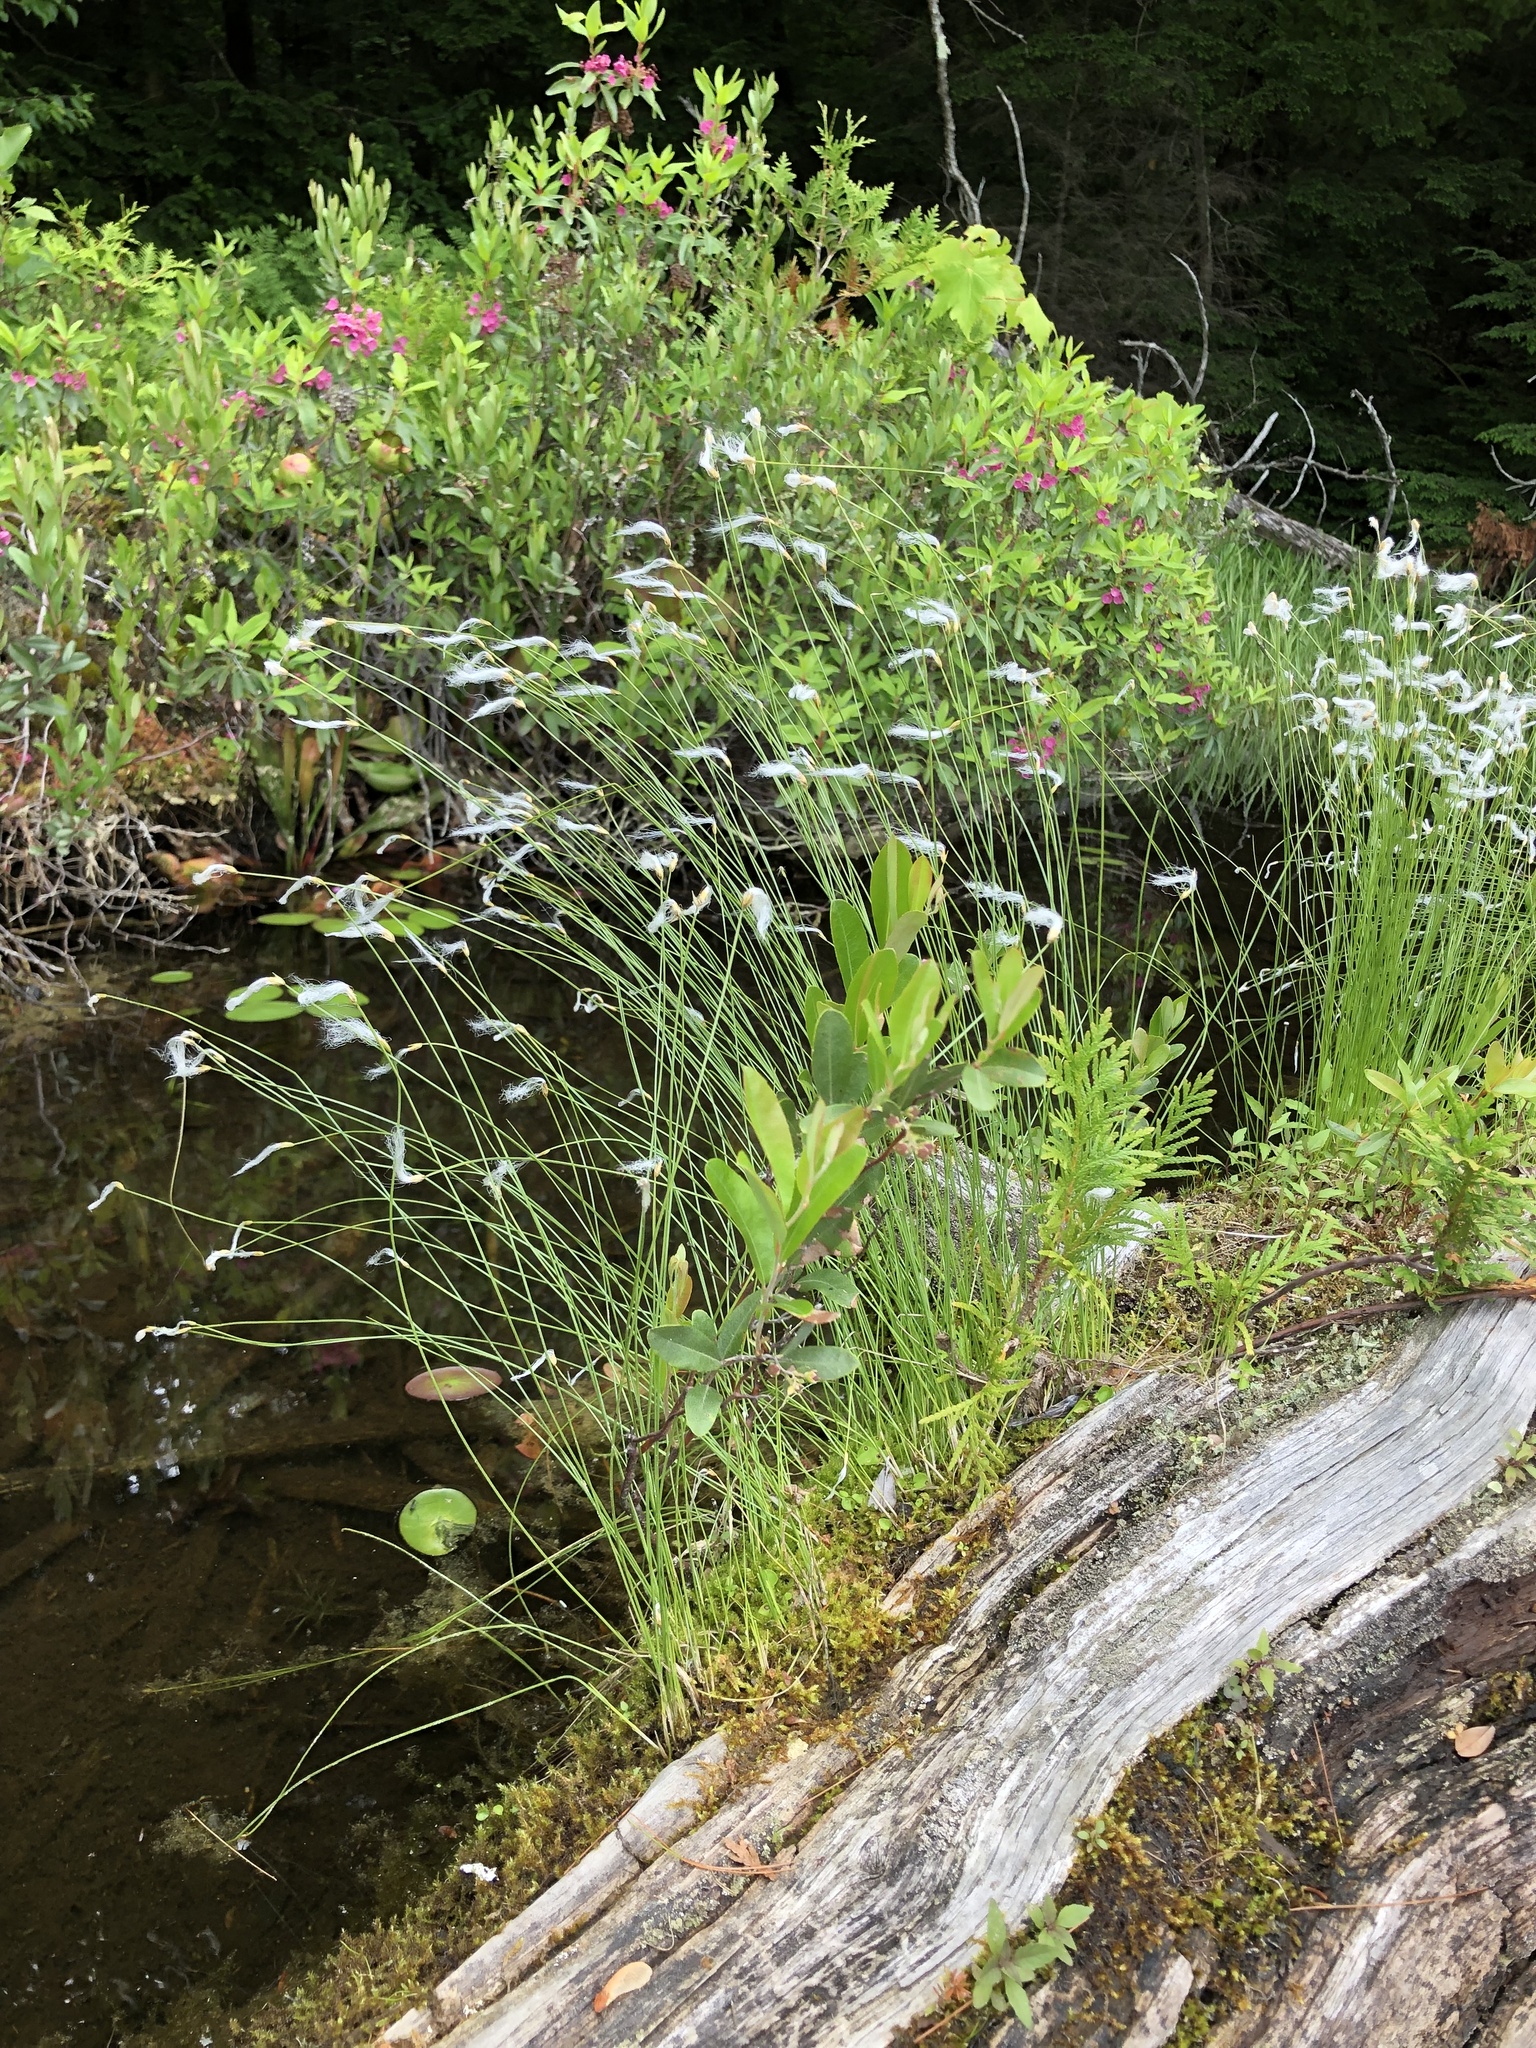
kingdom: Plantae
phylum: Tracheophyta
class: Liliopsida
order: Poales
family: Cyperaceae
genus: Trichophorum
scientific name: Trichophorum alpinum
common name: Alpine bulrush
